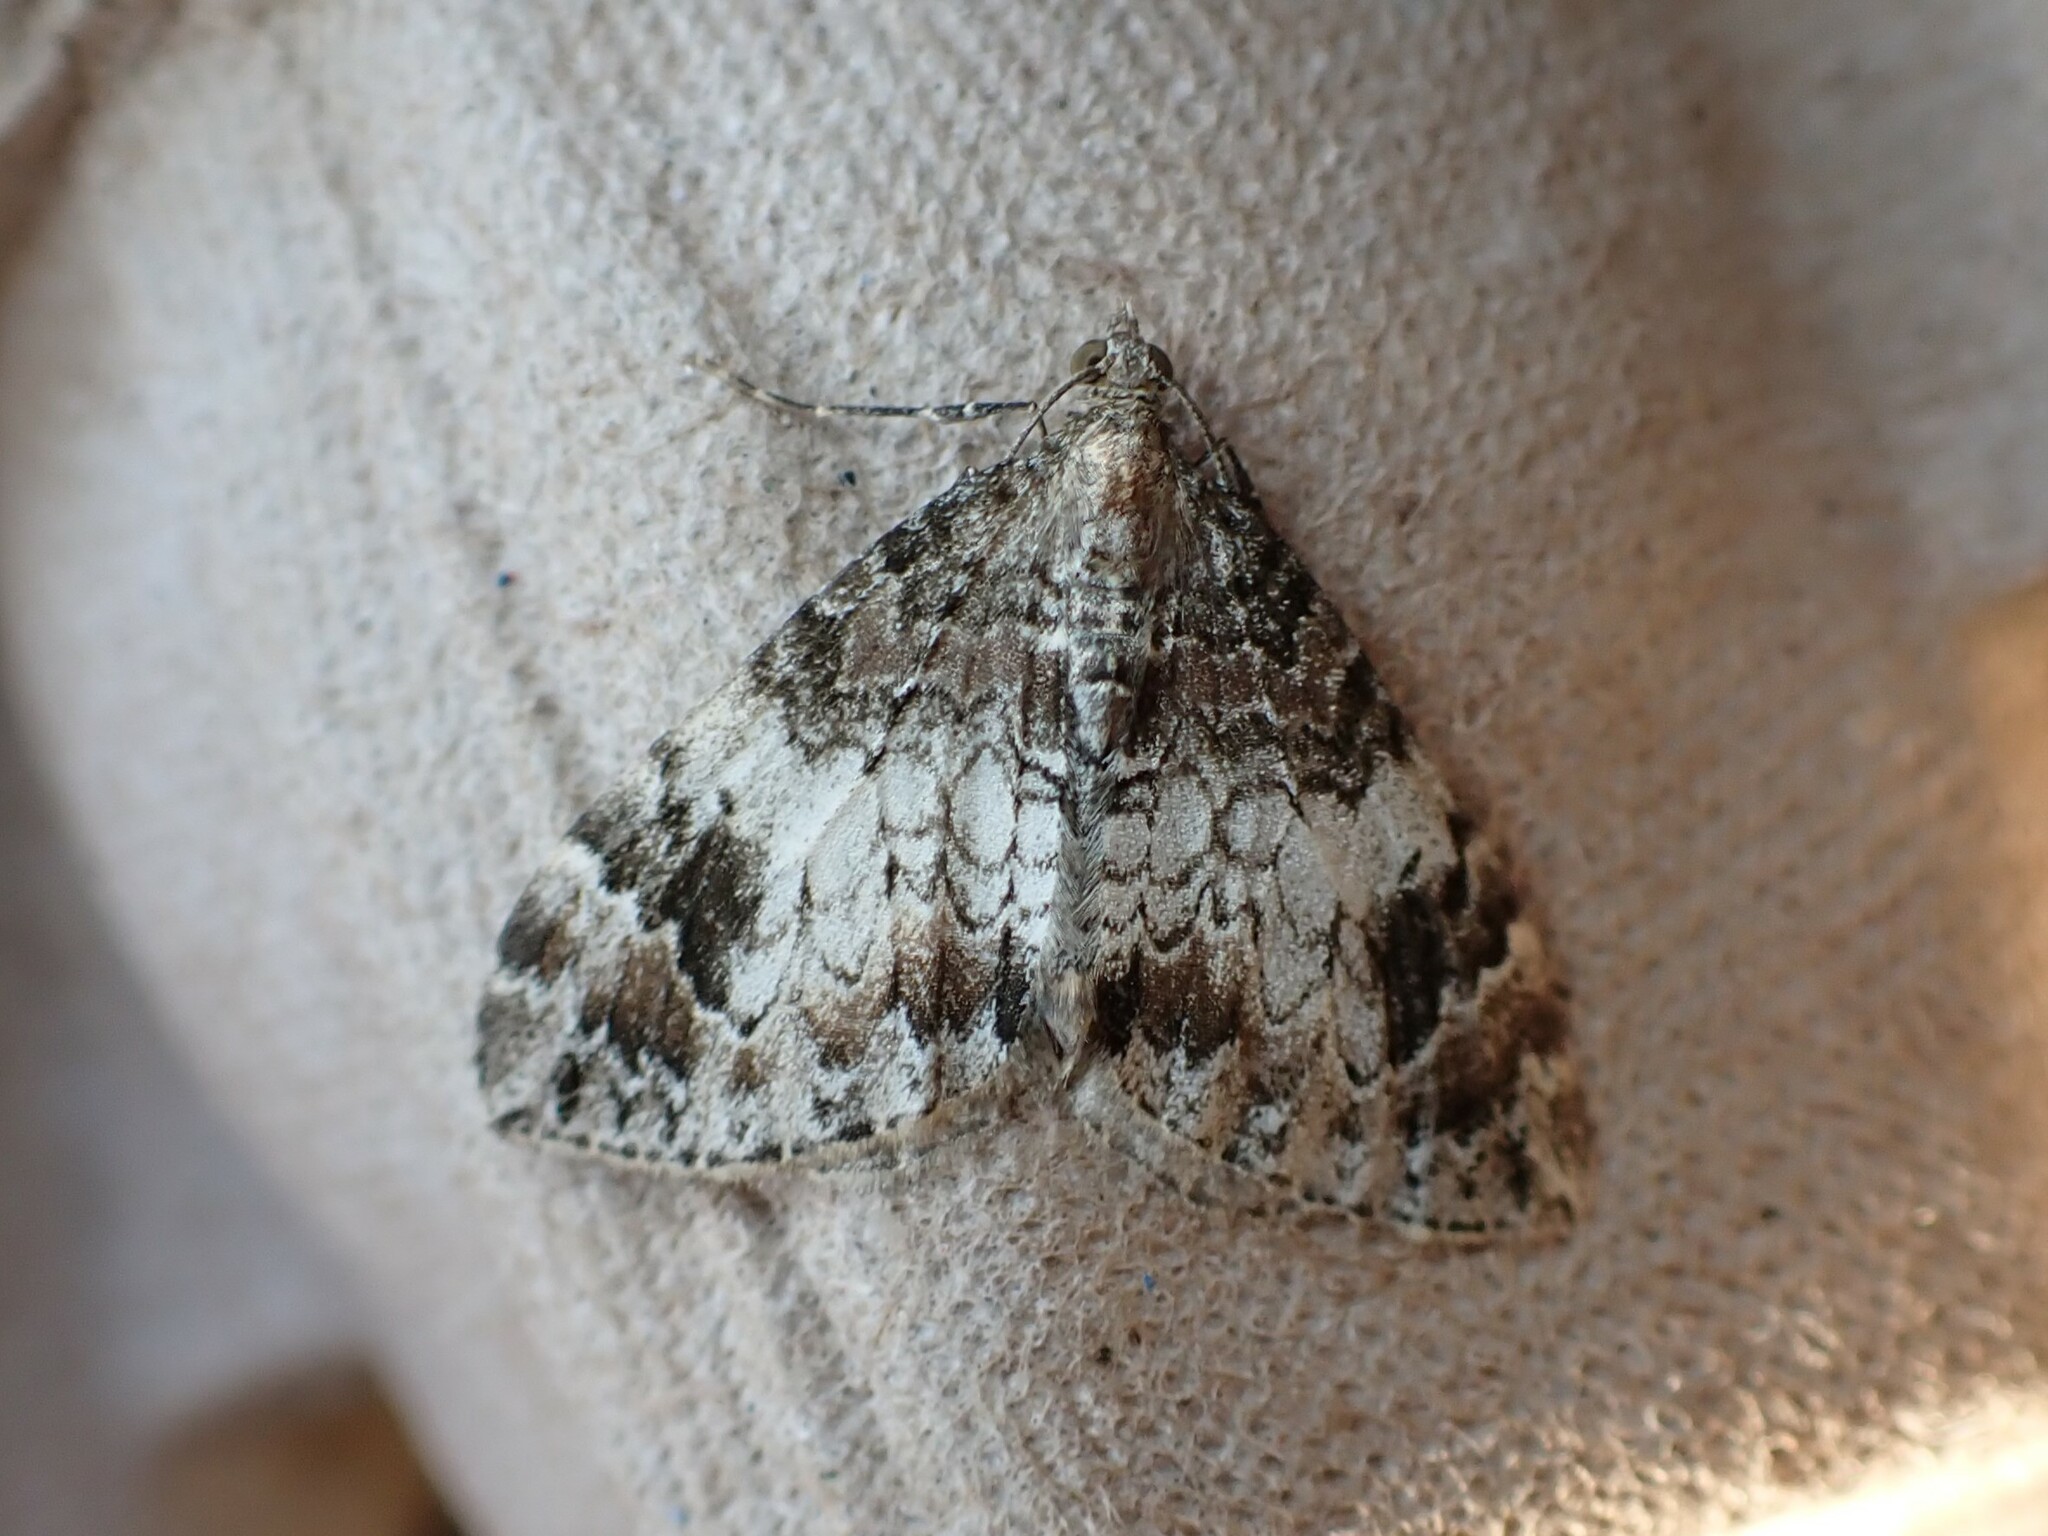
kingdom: Animalia
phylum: Arthropoda
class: Insecta
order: Lepidoptera
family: Geometridae
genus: Dysstroma
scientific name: Dysstroma citrata
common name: Dark marbled carpet
